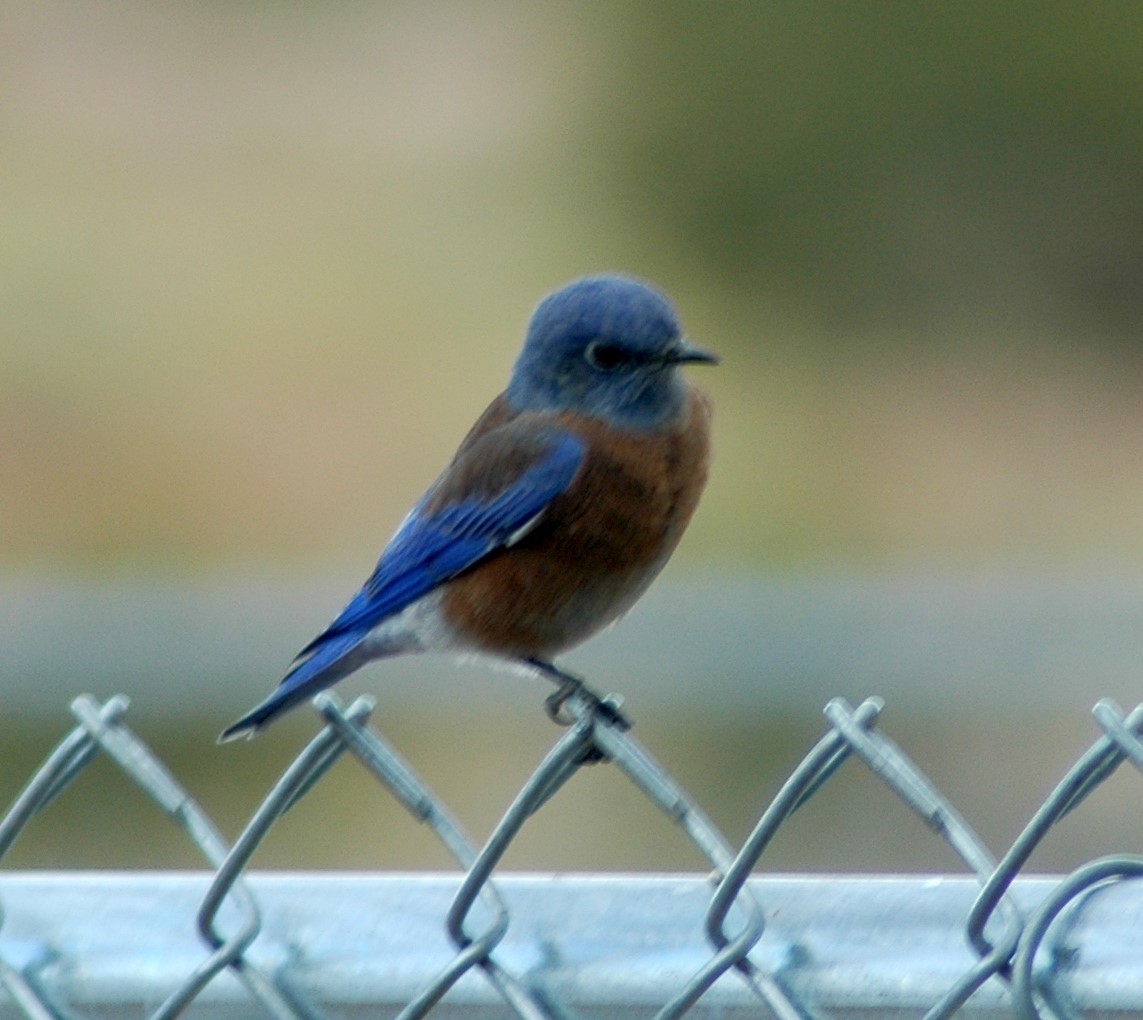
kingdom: Animalia
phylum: Chordata
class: Aves
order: Passeriformes
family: Turdidae
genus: Sialia
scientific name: Sialia mexicana
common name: Western bluebird
